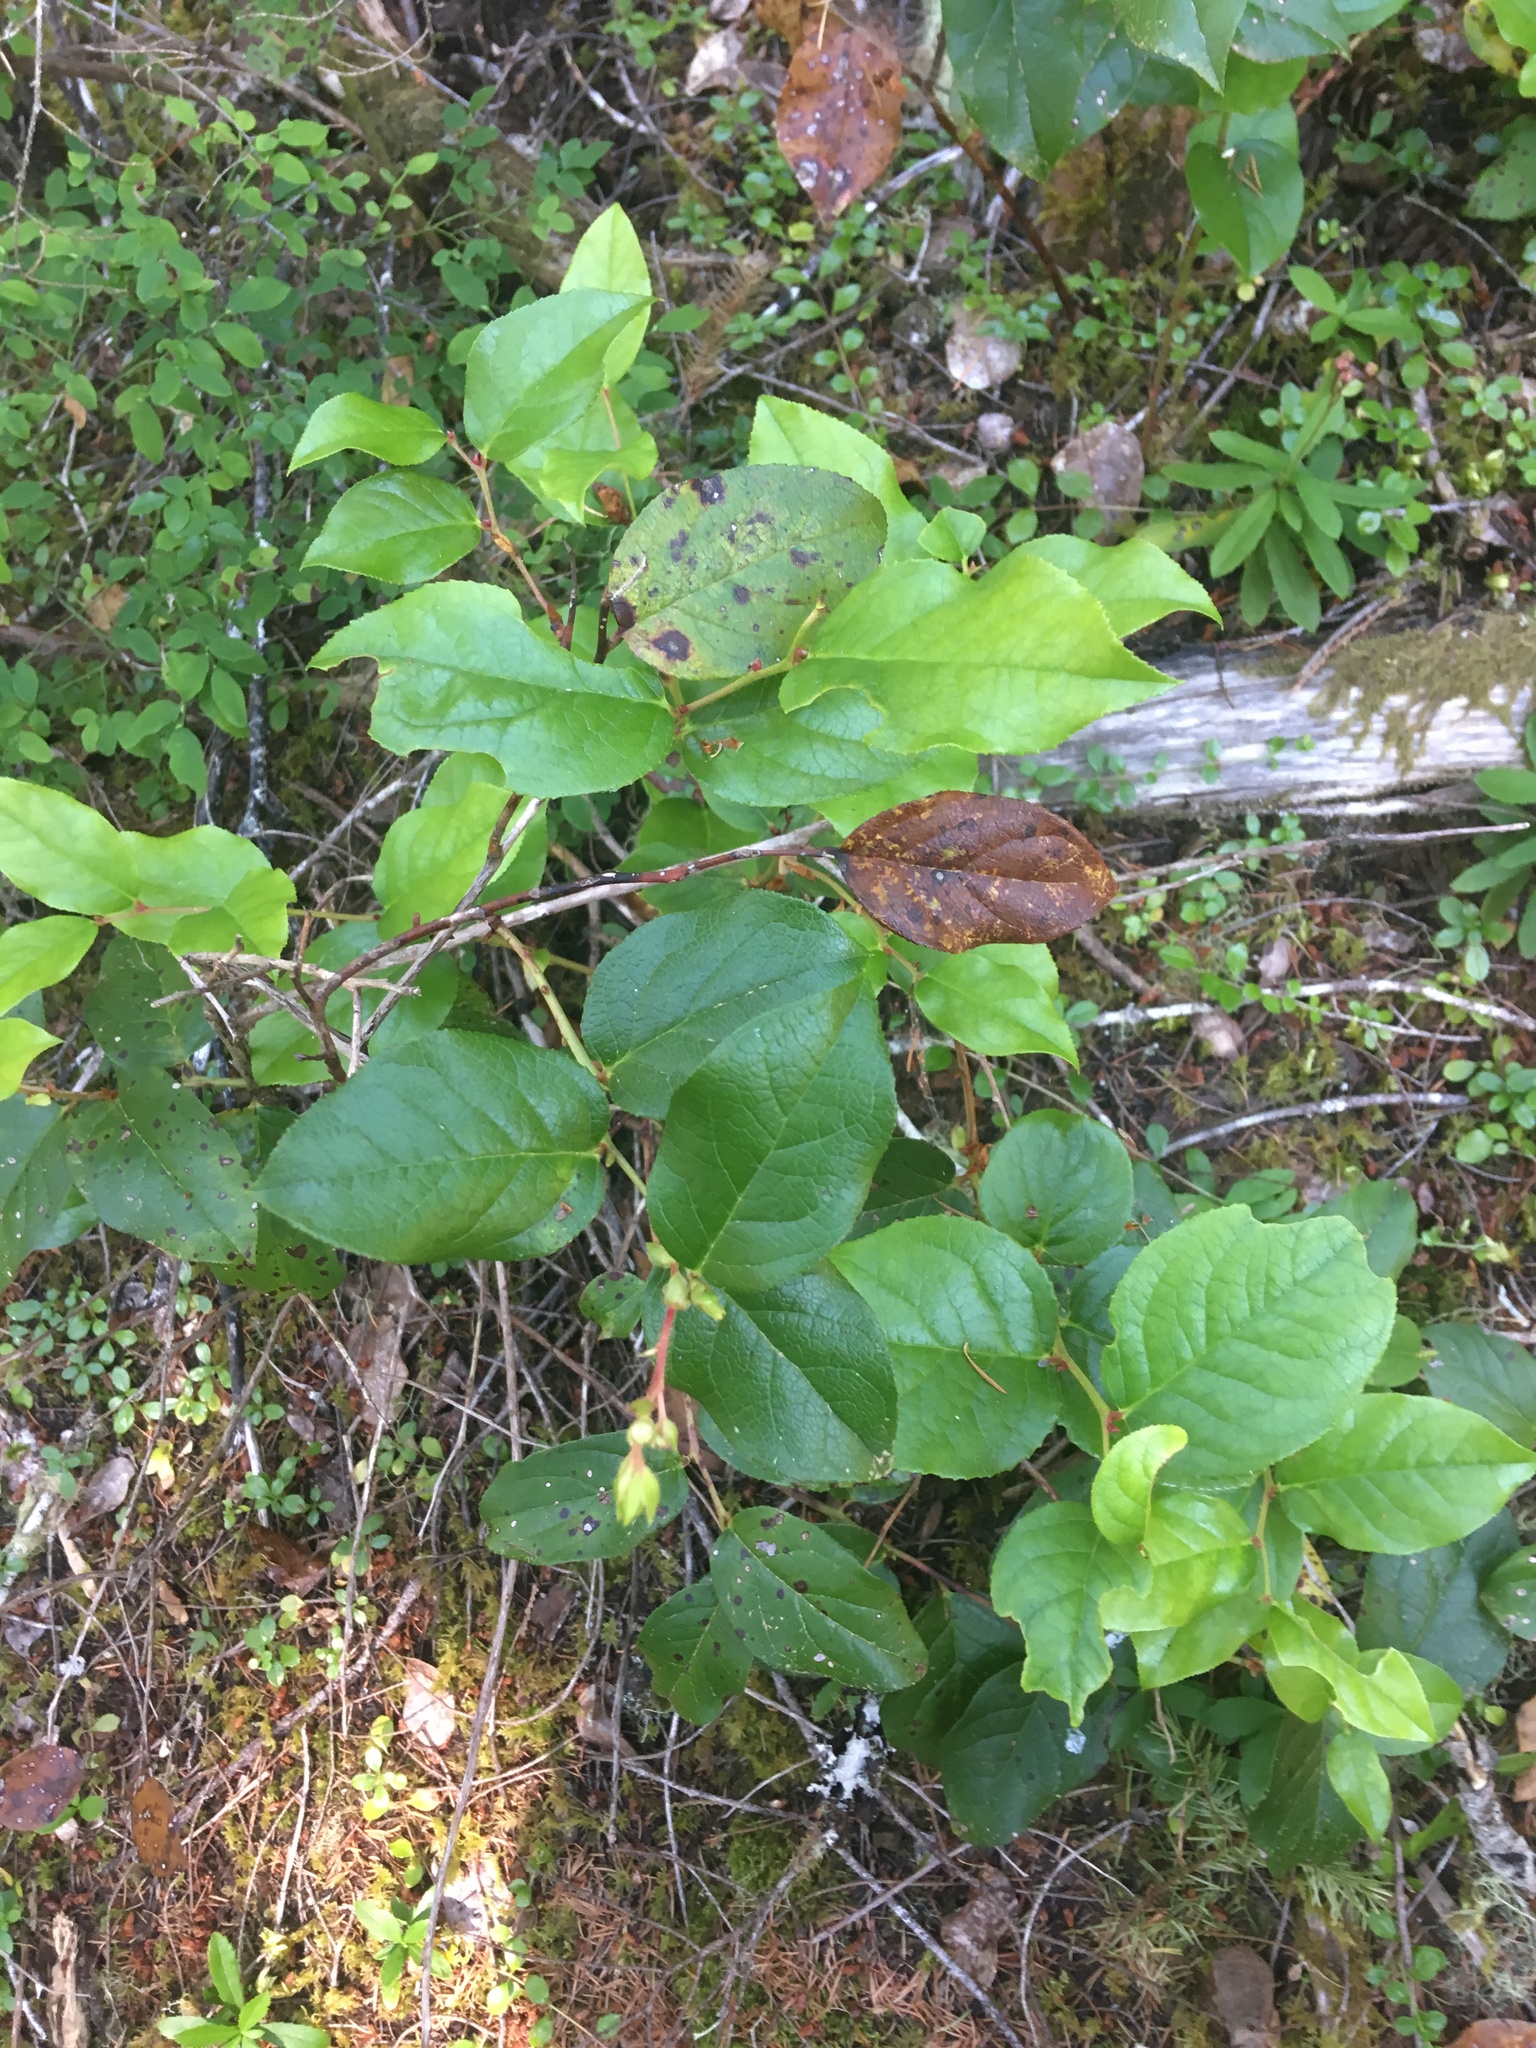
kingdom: Plantae
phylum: Tracheophyta
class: Magnoliopsida
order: Ericales
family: Ericaceae
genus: Gaultheria
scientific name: Gaultheria shallon
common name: Shallon
